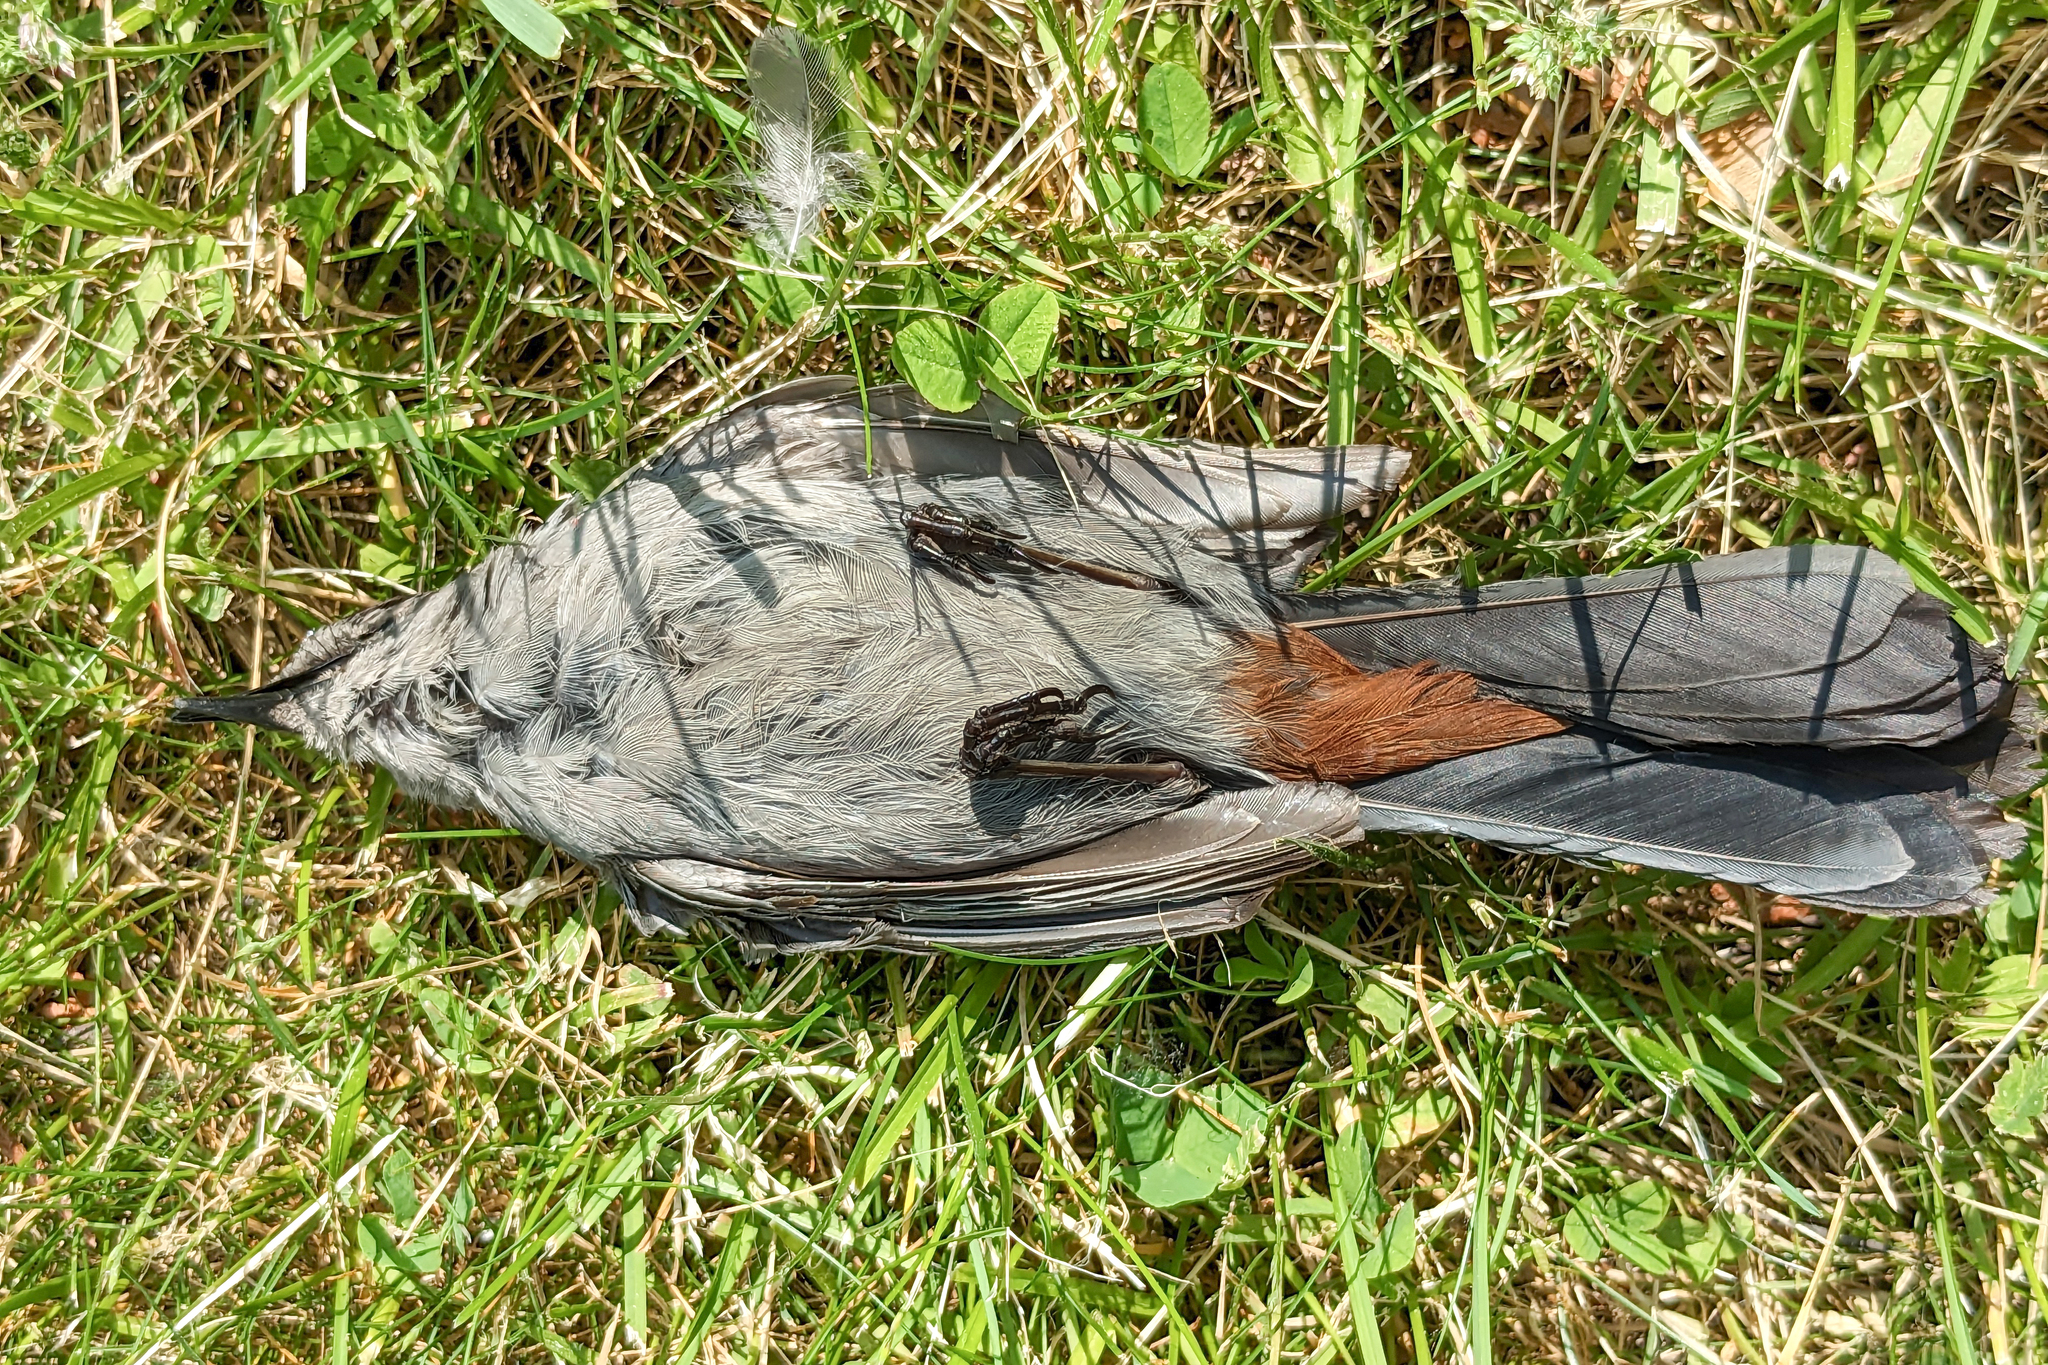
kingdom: Animalia
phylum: Chordata
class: Aves
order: Passeriformes
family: Mimidae
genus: Dumetella
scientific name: Dumetella carolinensis
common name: Gray catbird
